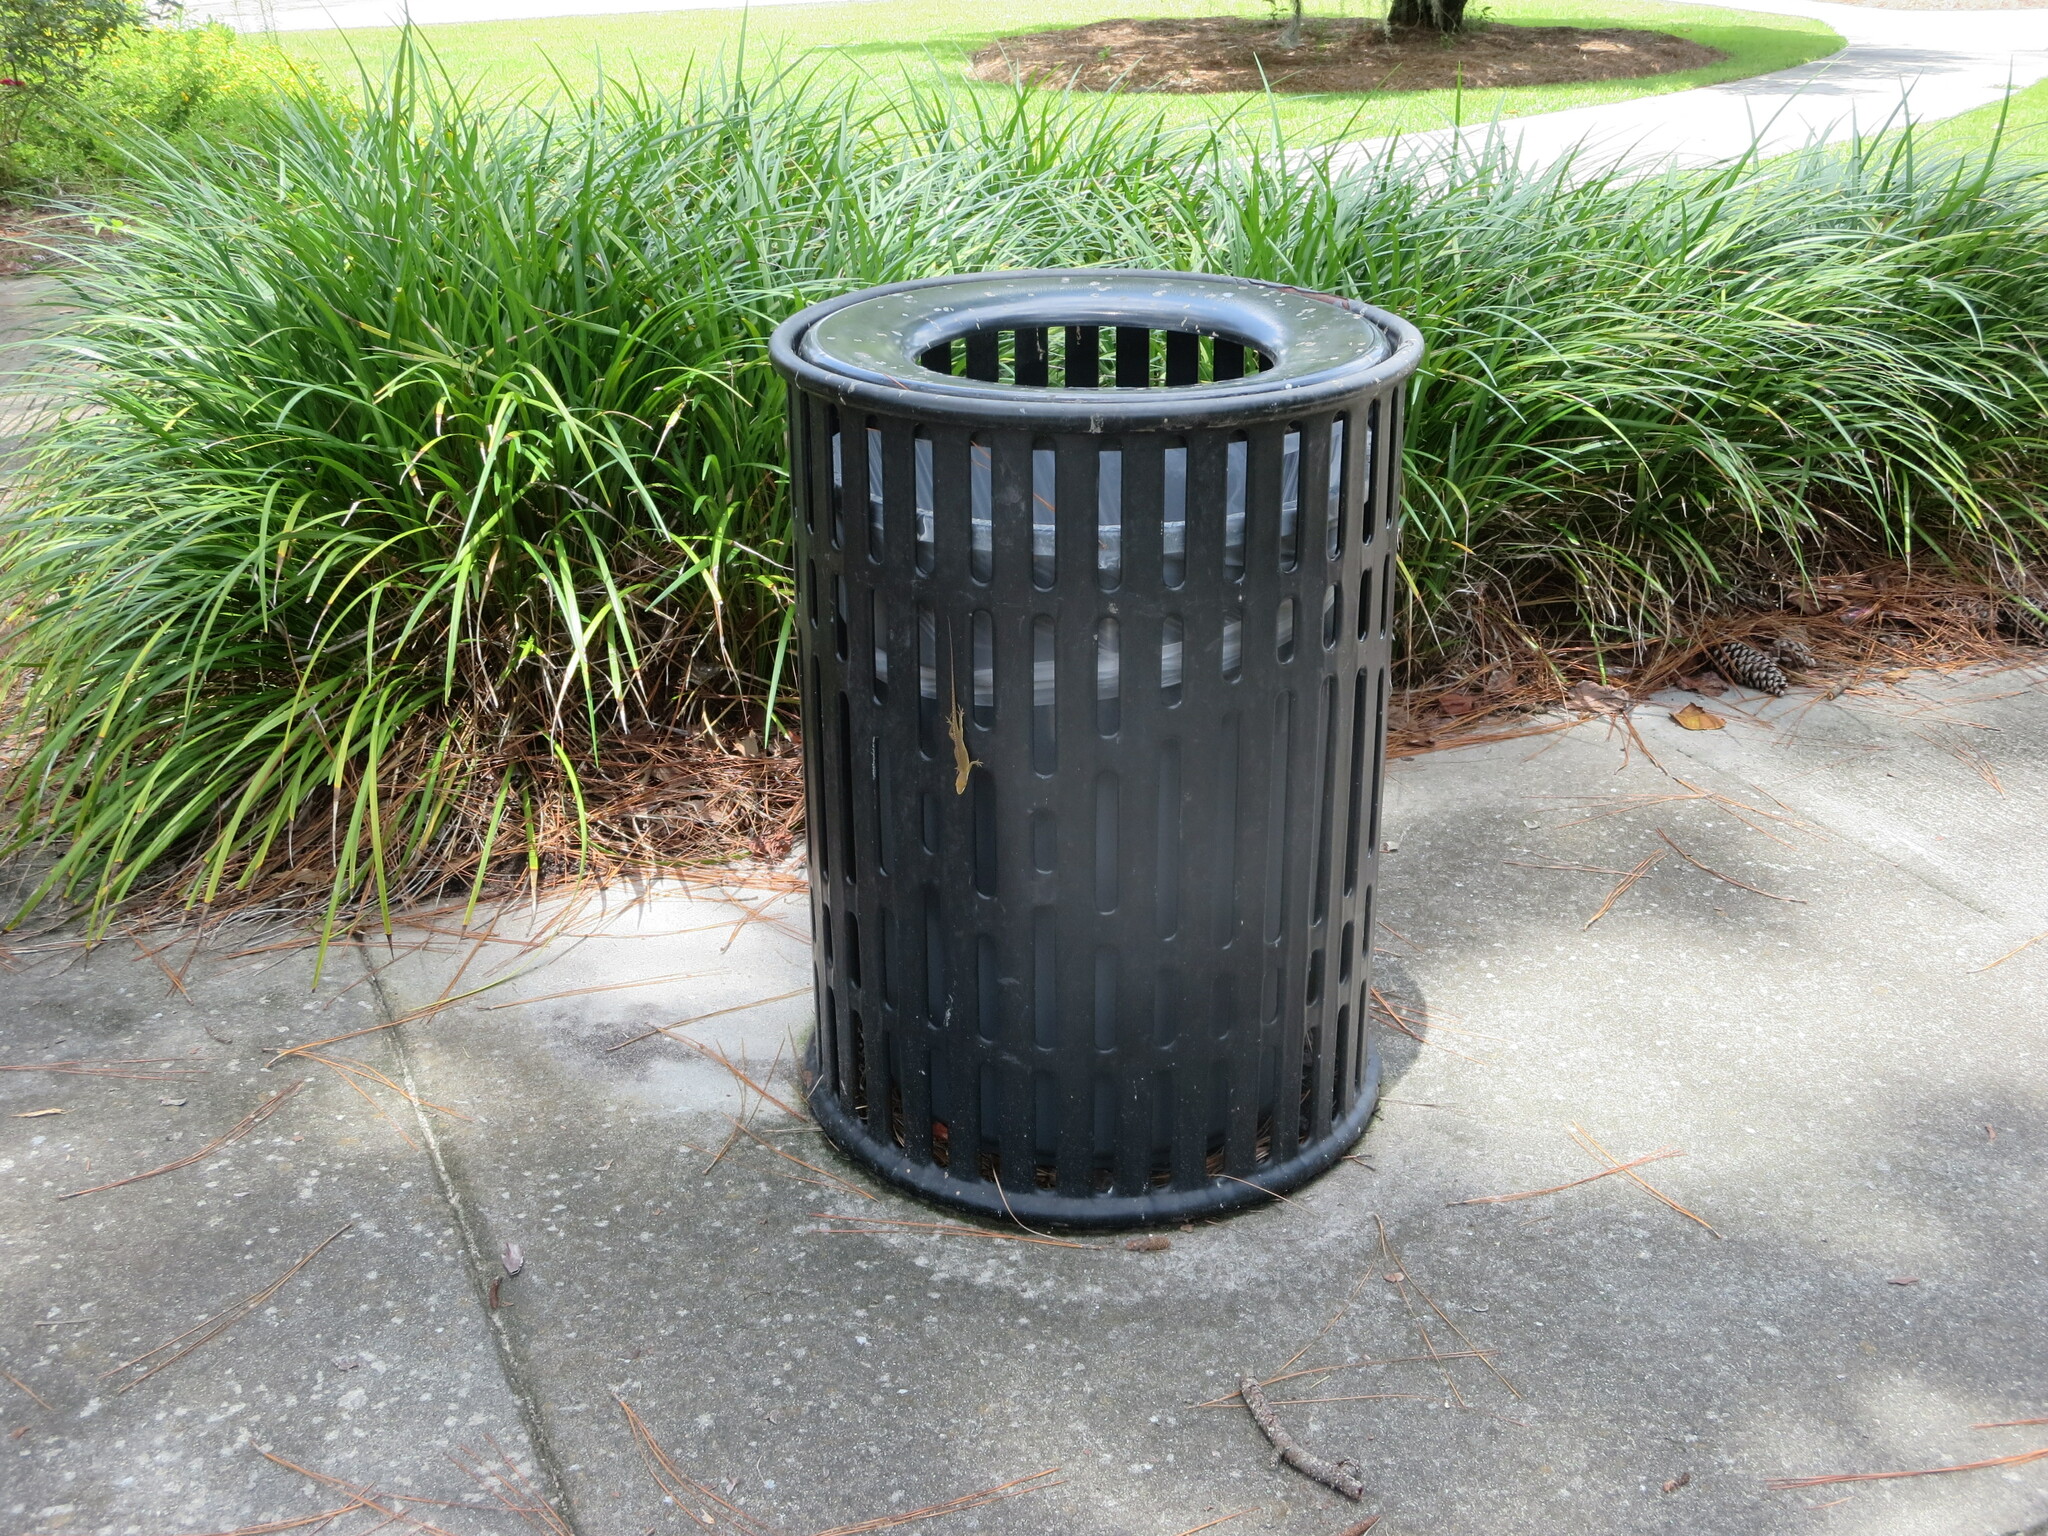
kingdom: Animalia
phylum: Chordata
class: Squamata
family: Dactyloidae
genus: Anolis
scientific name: Anolis carolinensis
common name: Green anole
